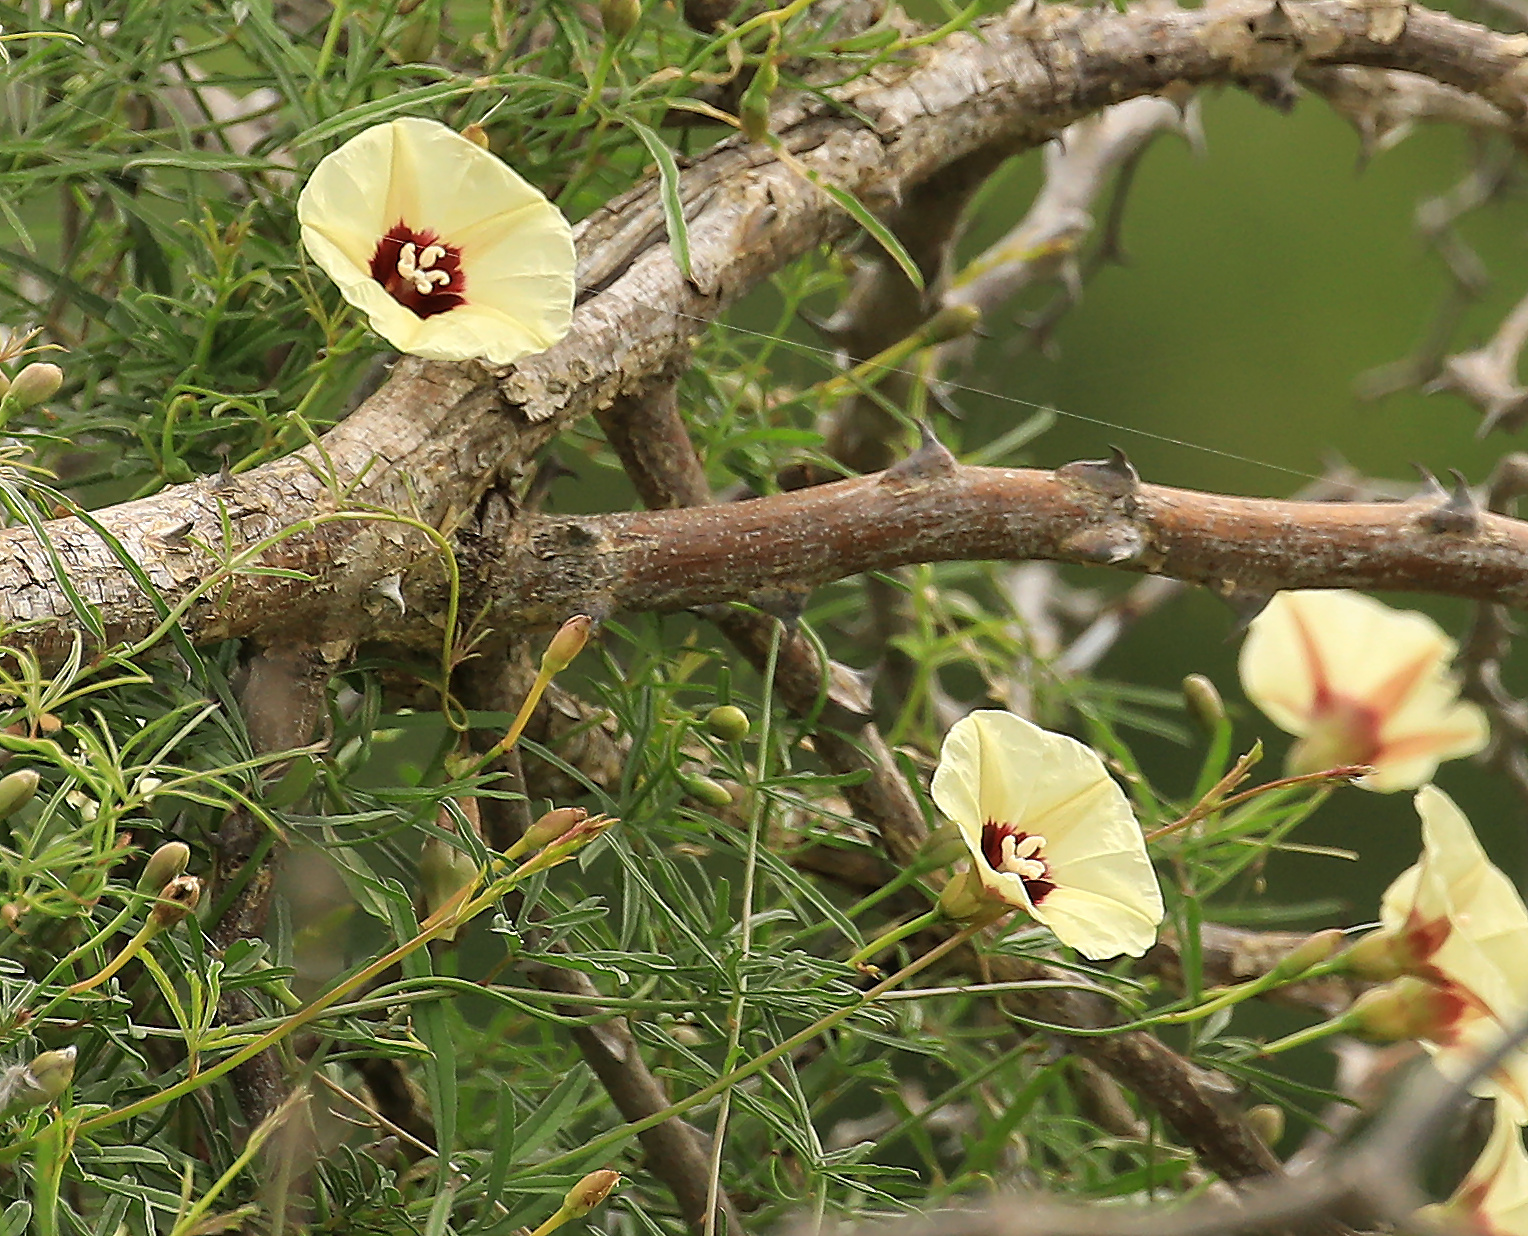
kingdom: Plantae
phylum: Tracheophyta
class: Magnoliopsida
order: Solanales
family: Convolvulaceae
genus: Merremia
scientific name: Merremia palmata
